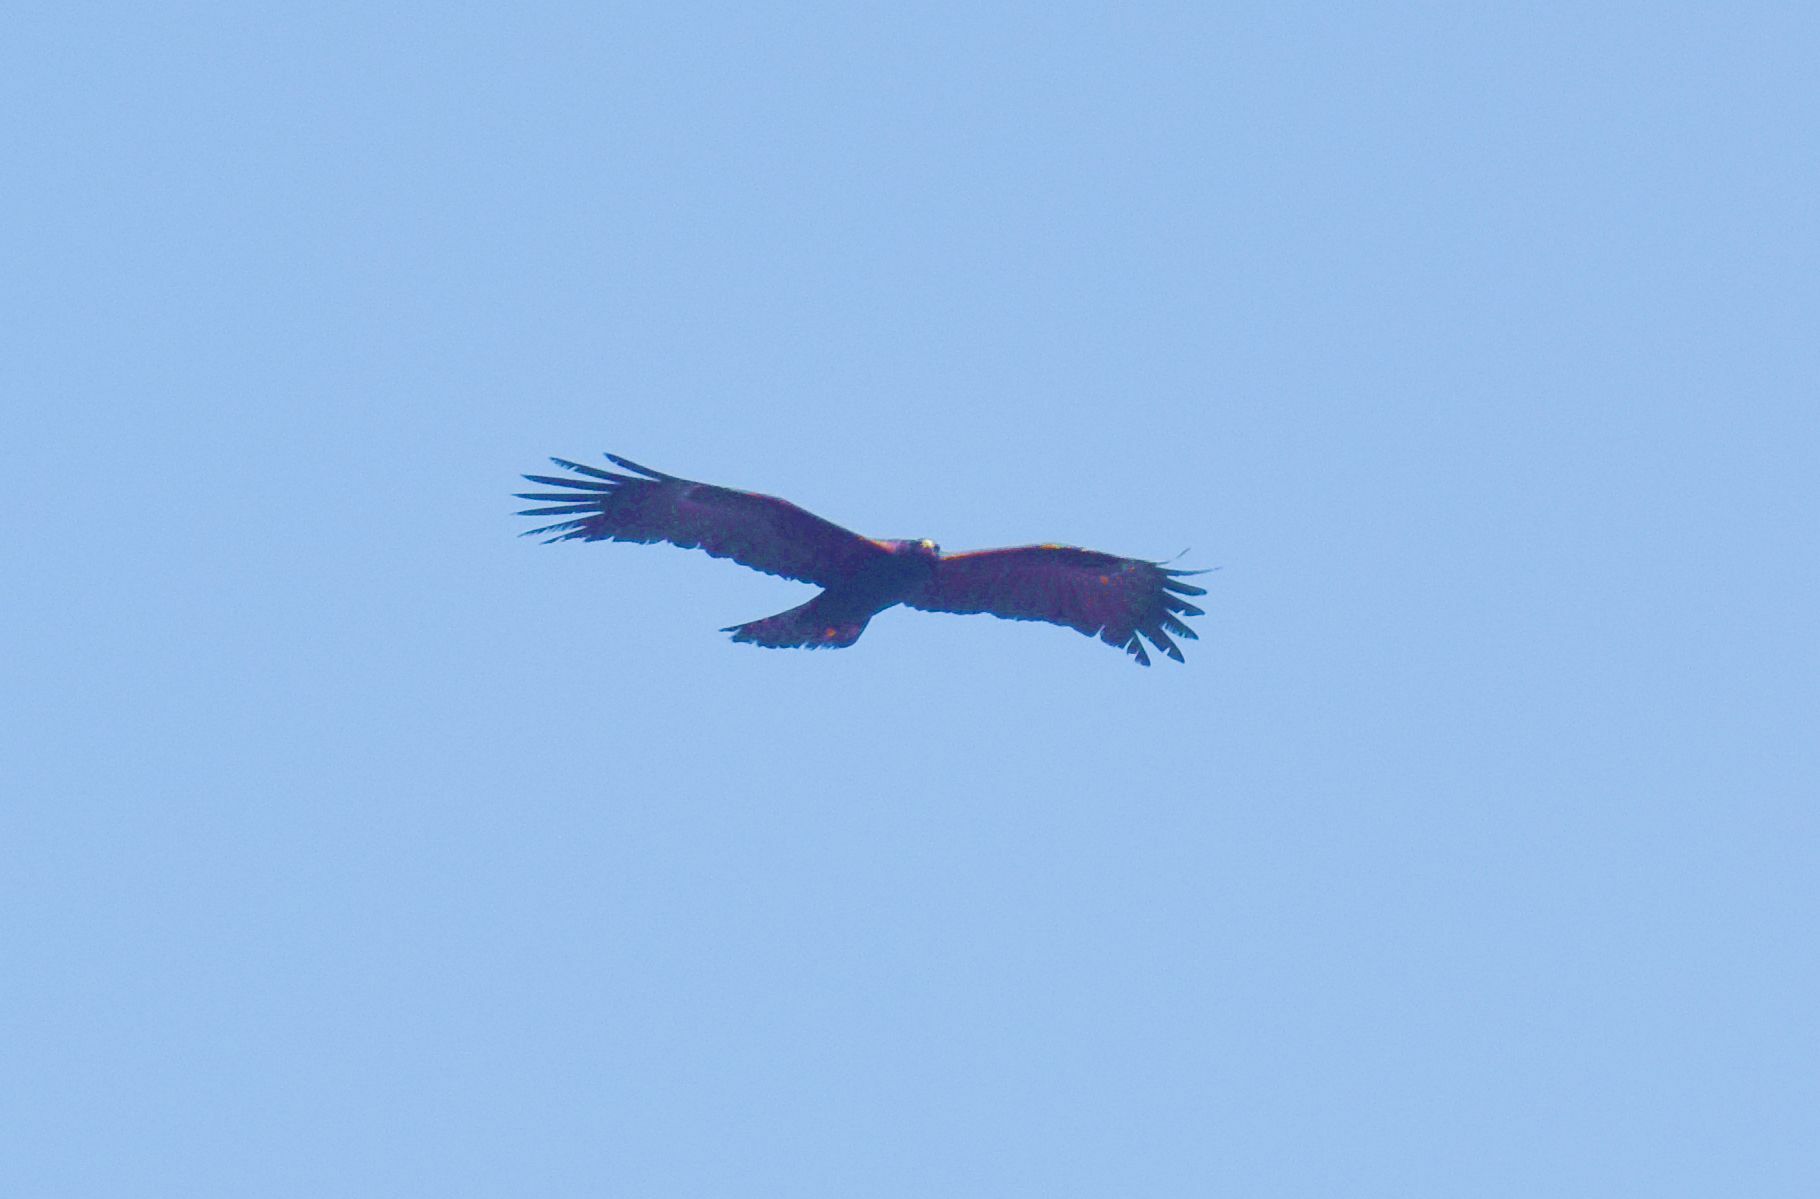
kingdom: Animalia
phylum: Chordata
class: Aves
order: Accipitriformes
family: Accipitridae
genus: Ictinaetus
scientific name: Ictinaetus malayensis
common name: Black eagle
